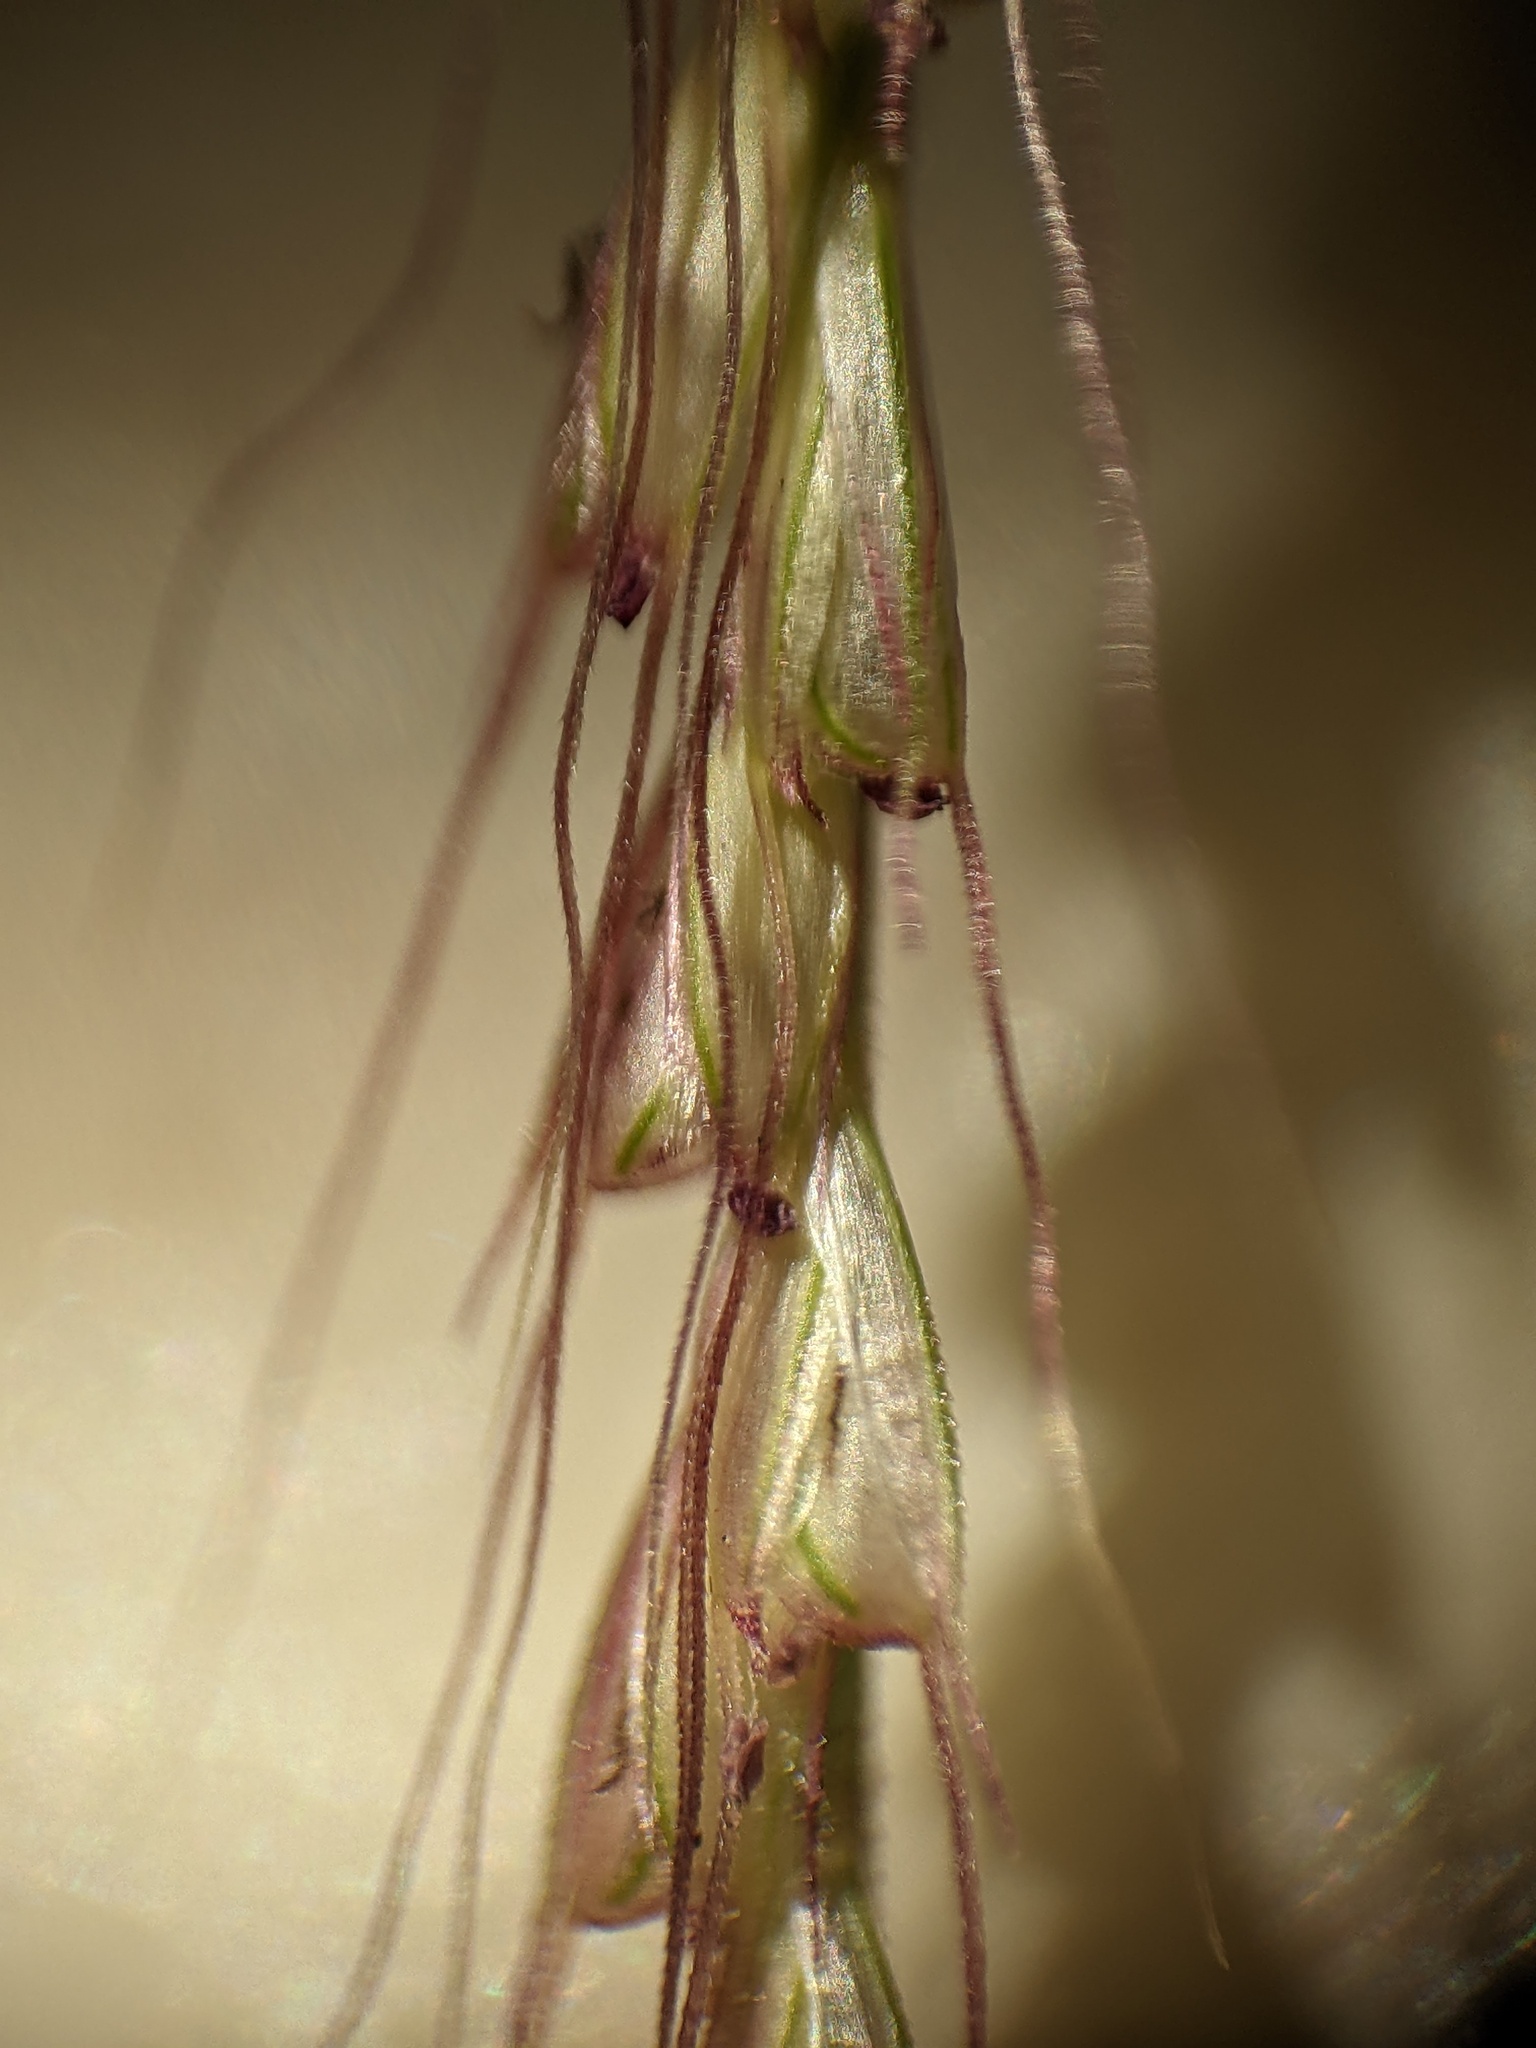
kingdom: Plantae
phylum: Tracheophyta
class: Liliopsida
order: Poales
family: Poaceae
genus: Chloris
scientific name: Chloris verticillata
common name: Tumble windmill grass
